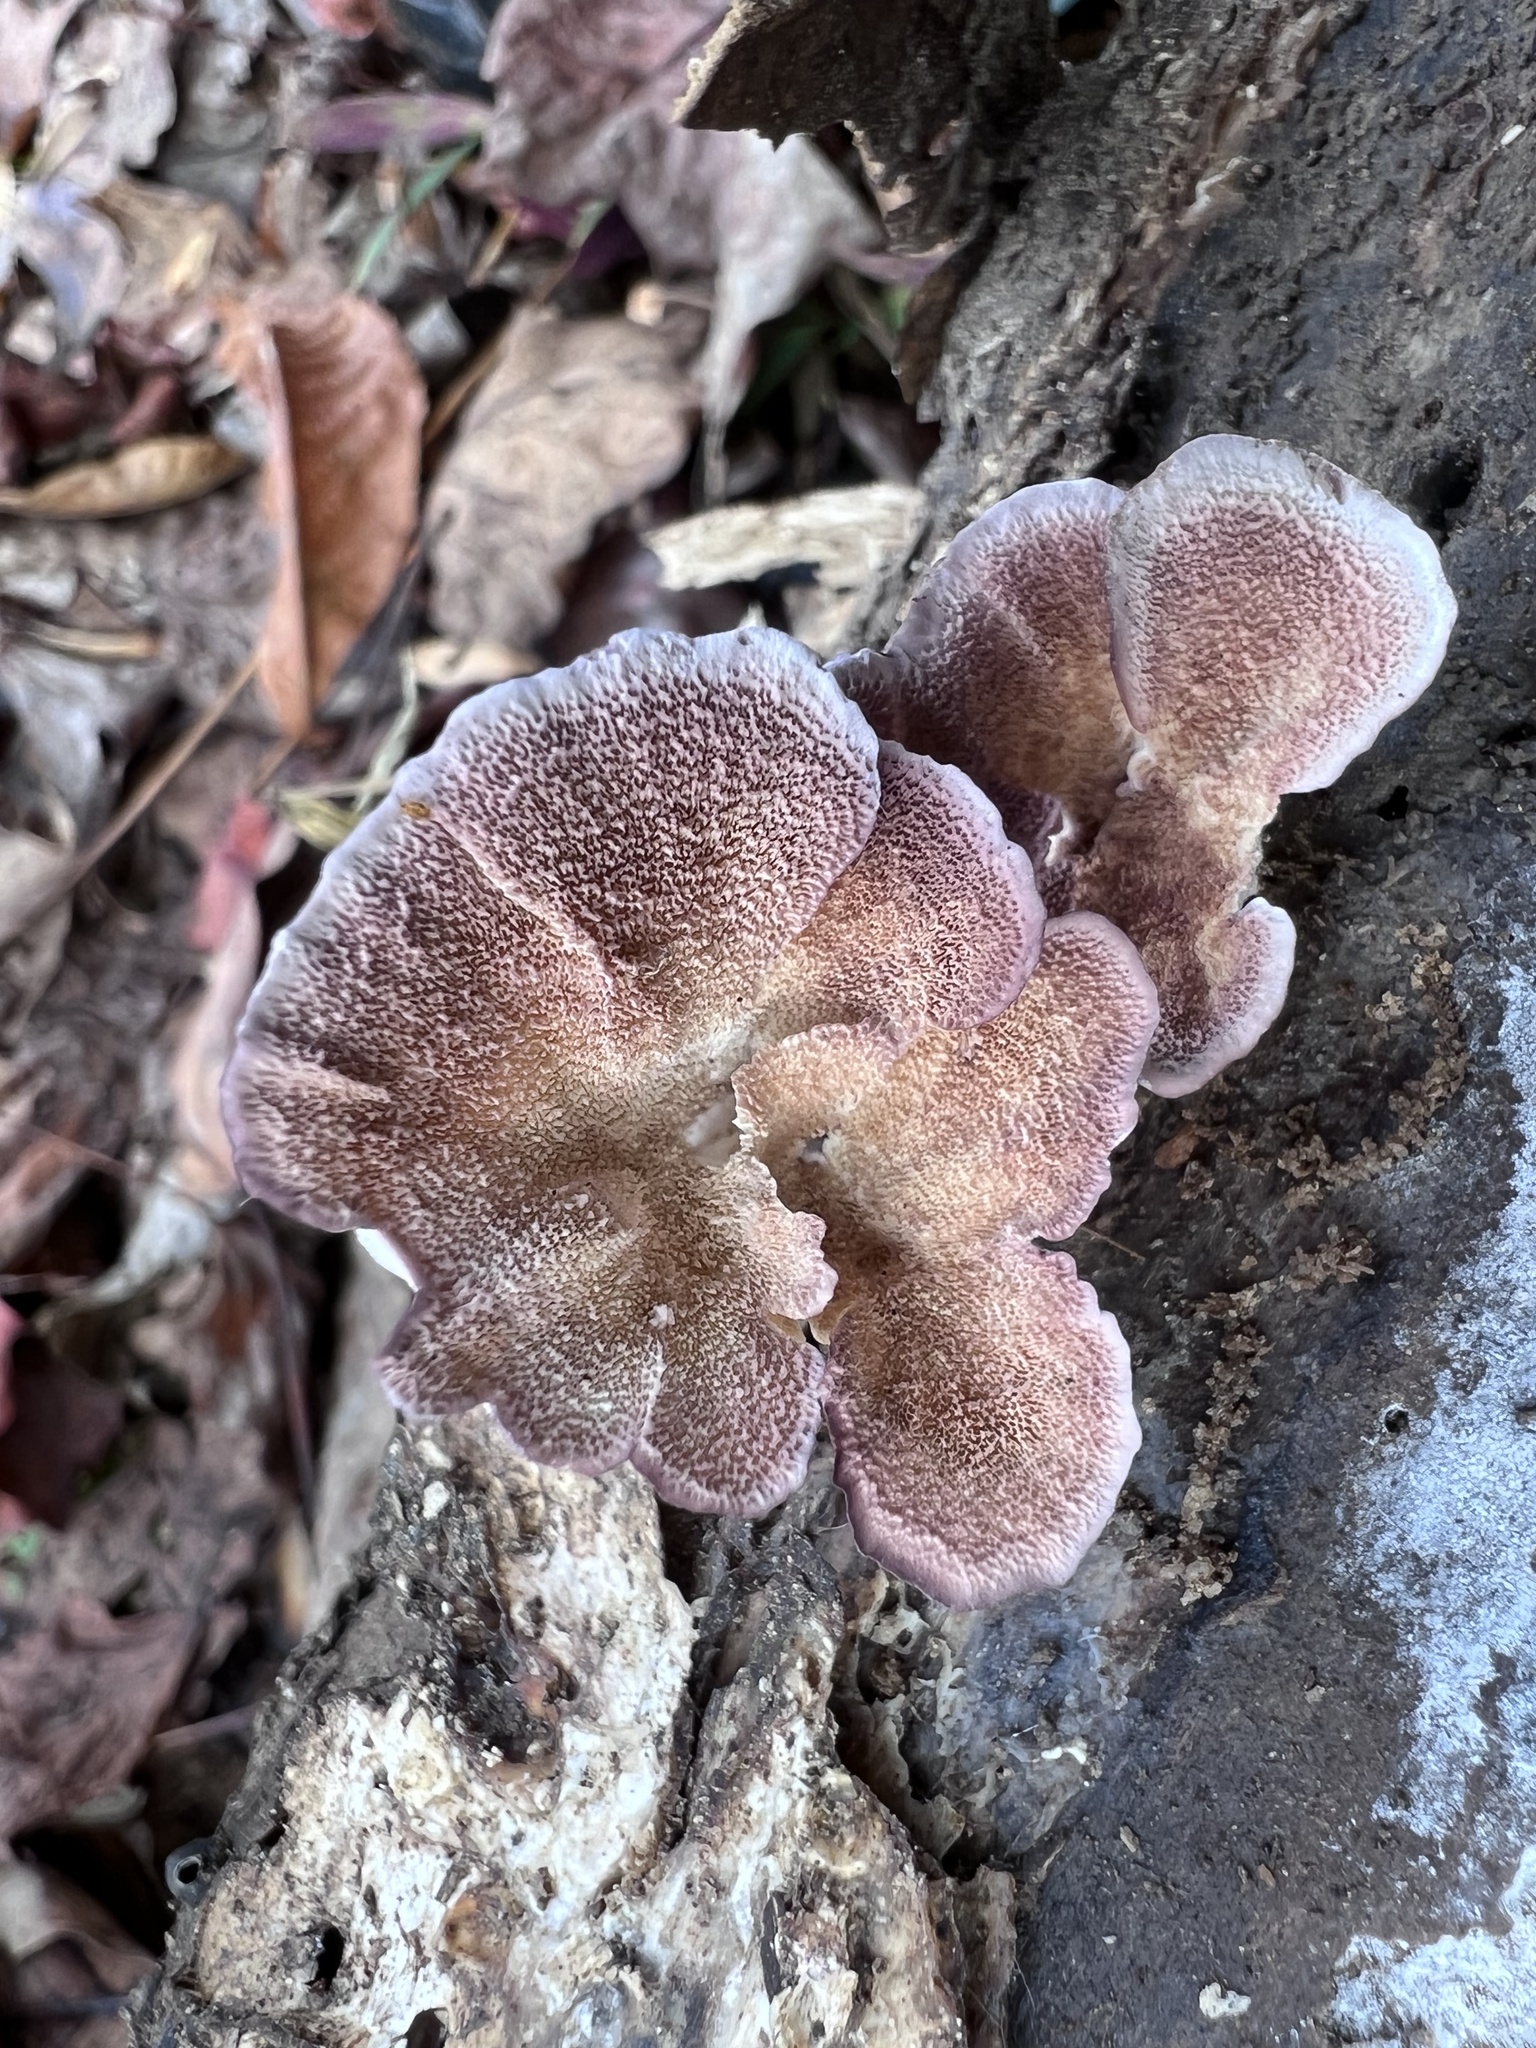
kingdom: Fungi
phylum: Basidiomycota
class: Agaricomycetes
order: Hymenochaetales
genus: Trichaptum
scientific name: Trichaptum biforme
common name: Violet-toothed polypore
